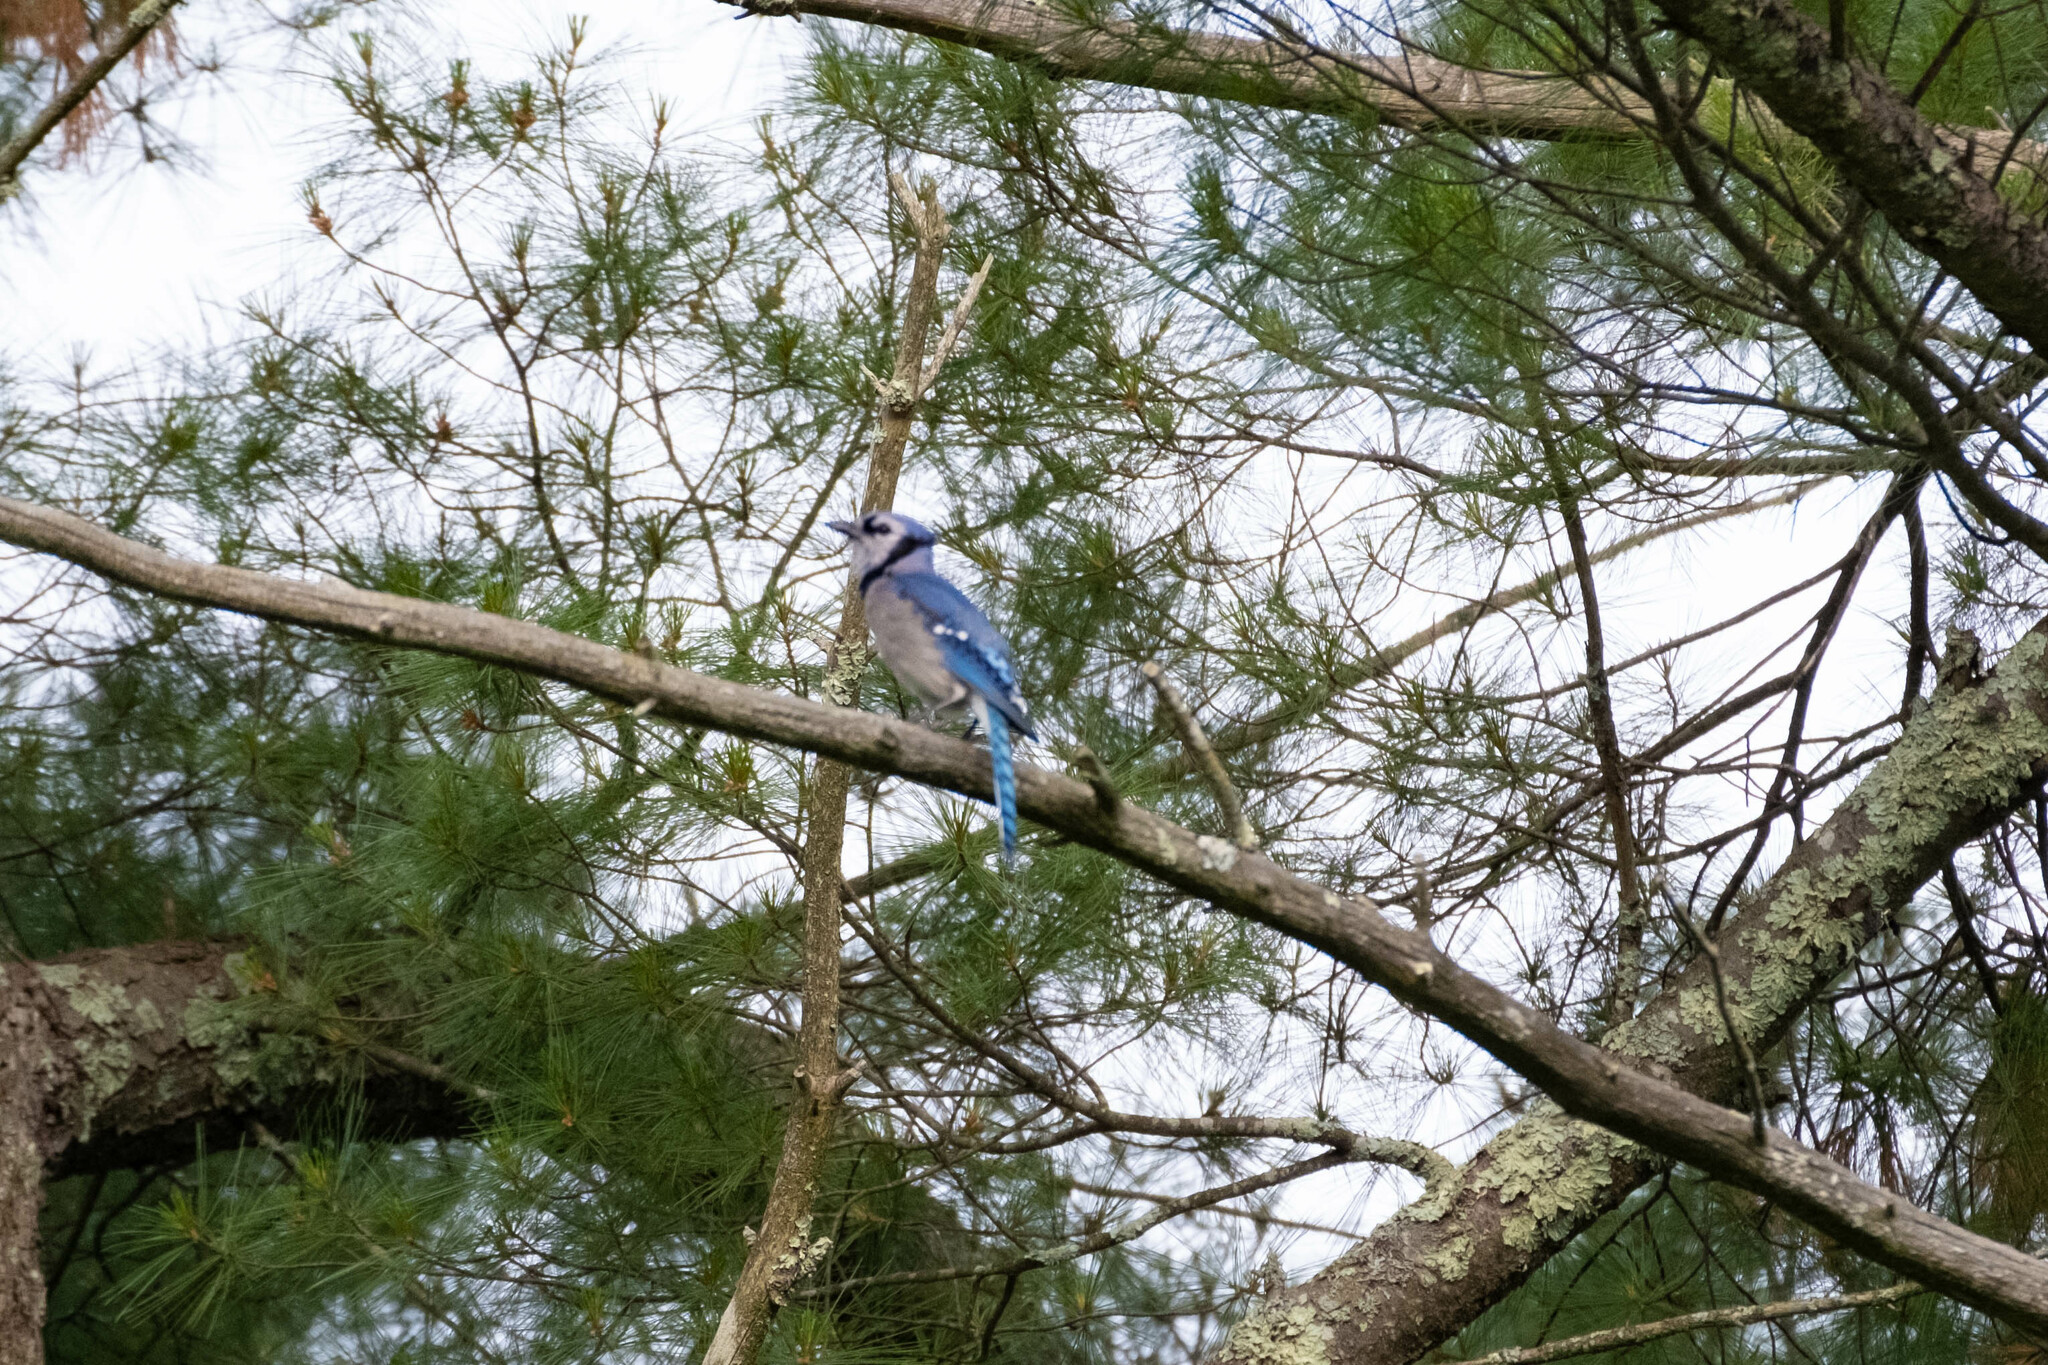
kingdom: Animalia
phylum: Chordata
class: Aves
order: Passeriformes
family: Corvidae
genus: Cyanocitta
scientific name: Cyanocitta cristata
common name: Blue jay
